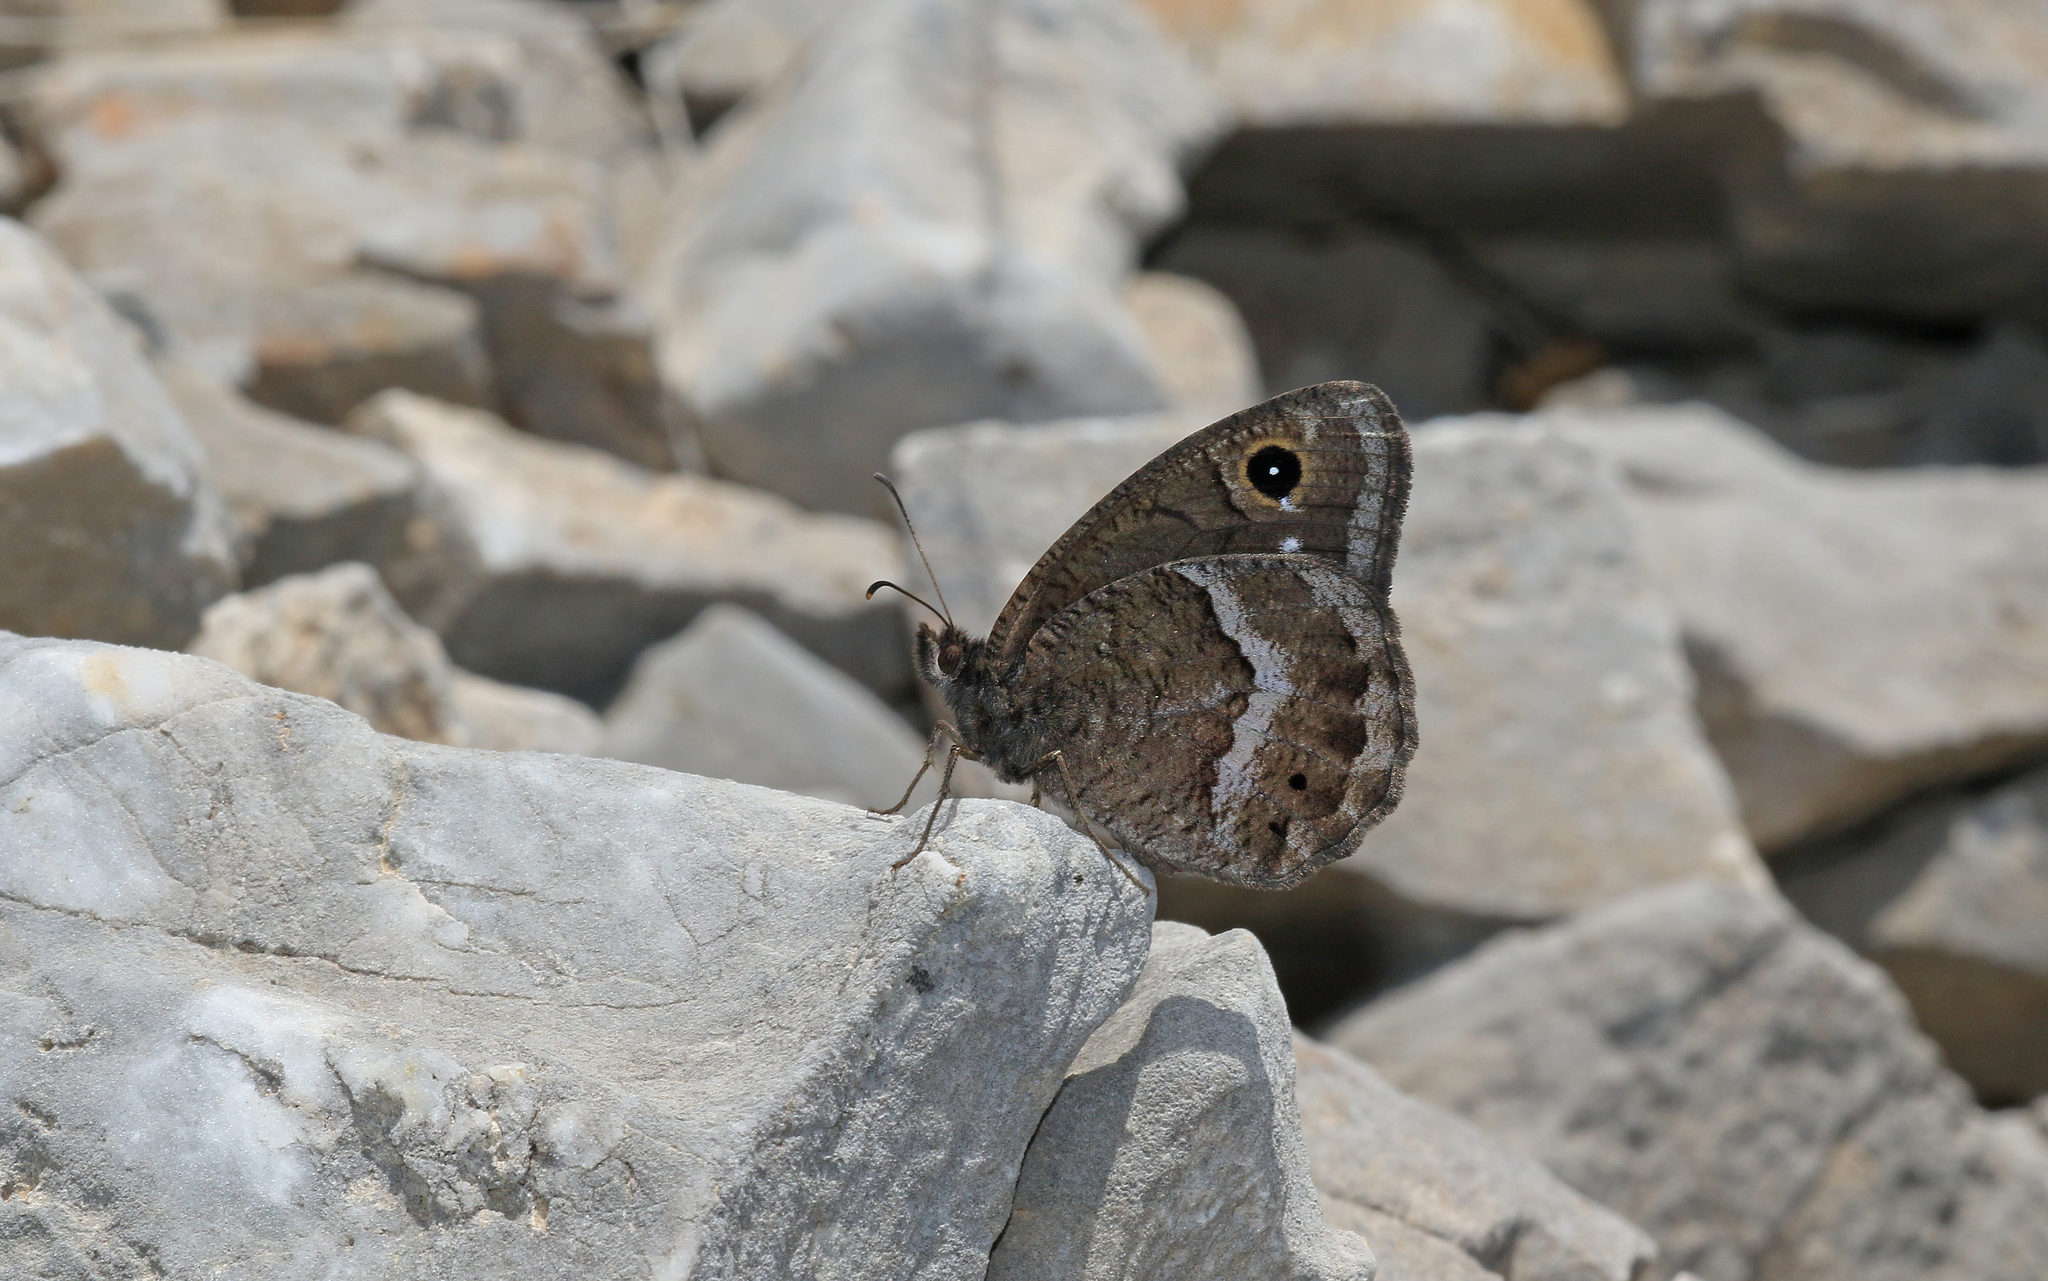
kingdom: Animalia
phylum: Arthropoda
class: Insecta
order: Lepidoptera
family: Nymphalidae
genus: Satyrus
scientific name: Satyrus ferula
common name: Great sooty satyr
